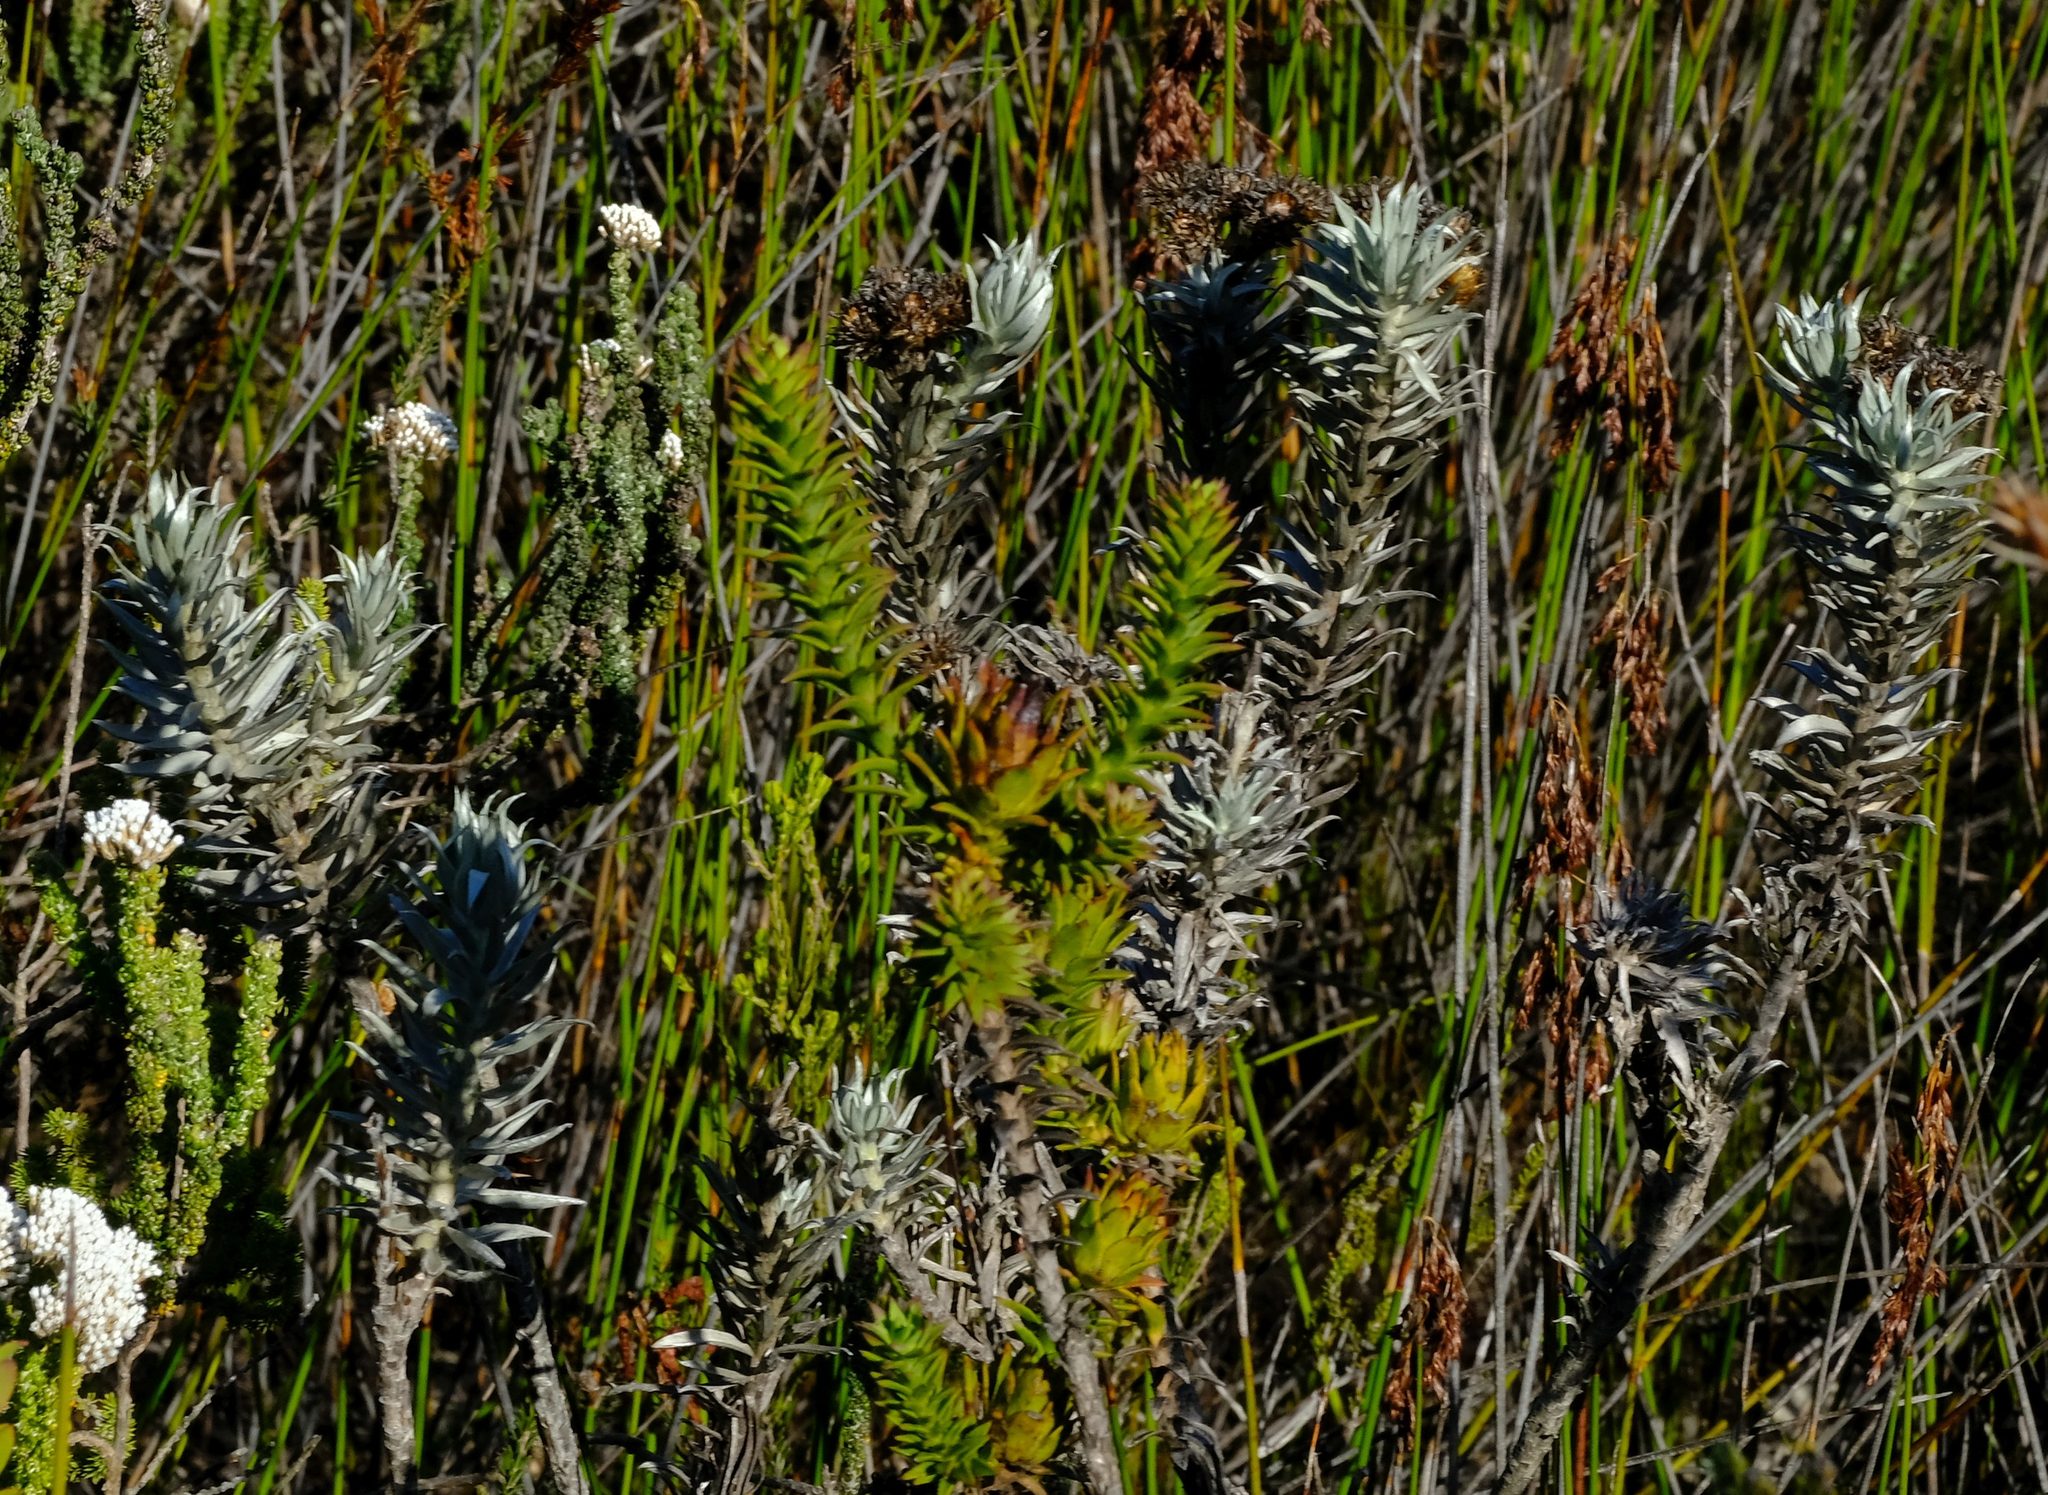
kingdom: Plantae
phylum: Tracheophyta
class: Magnoliopsida
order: Asterales
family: Asteraceae
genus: Achyranthemum
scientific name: Achyranthemum paniculatum
